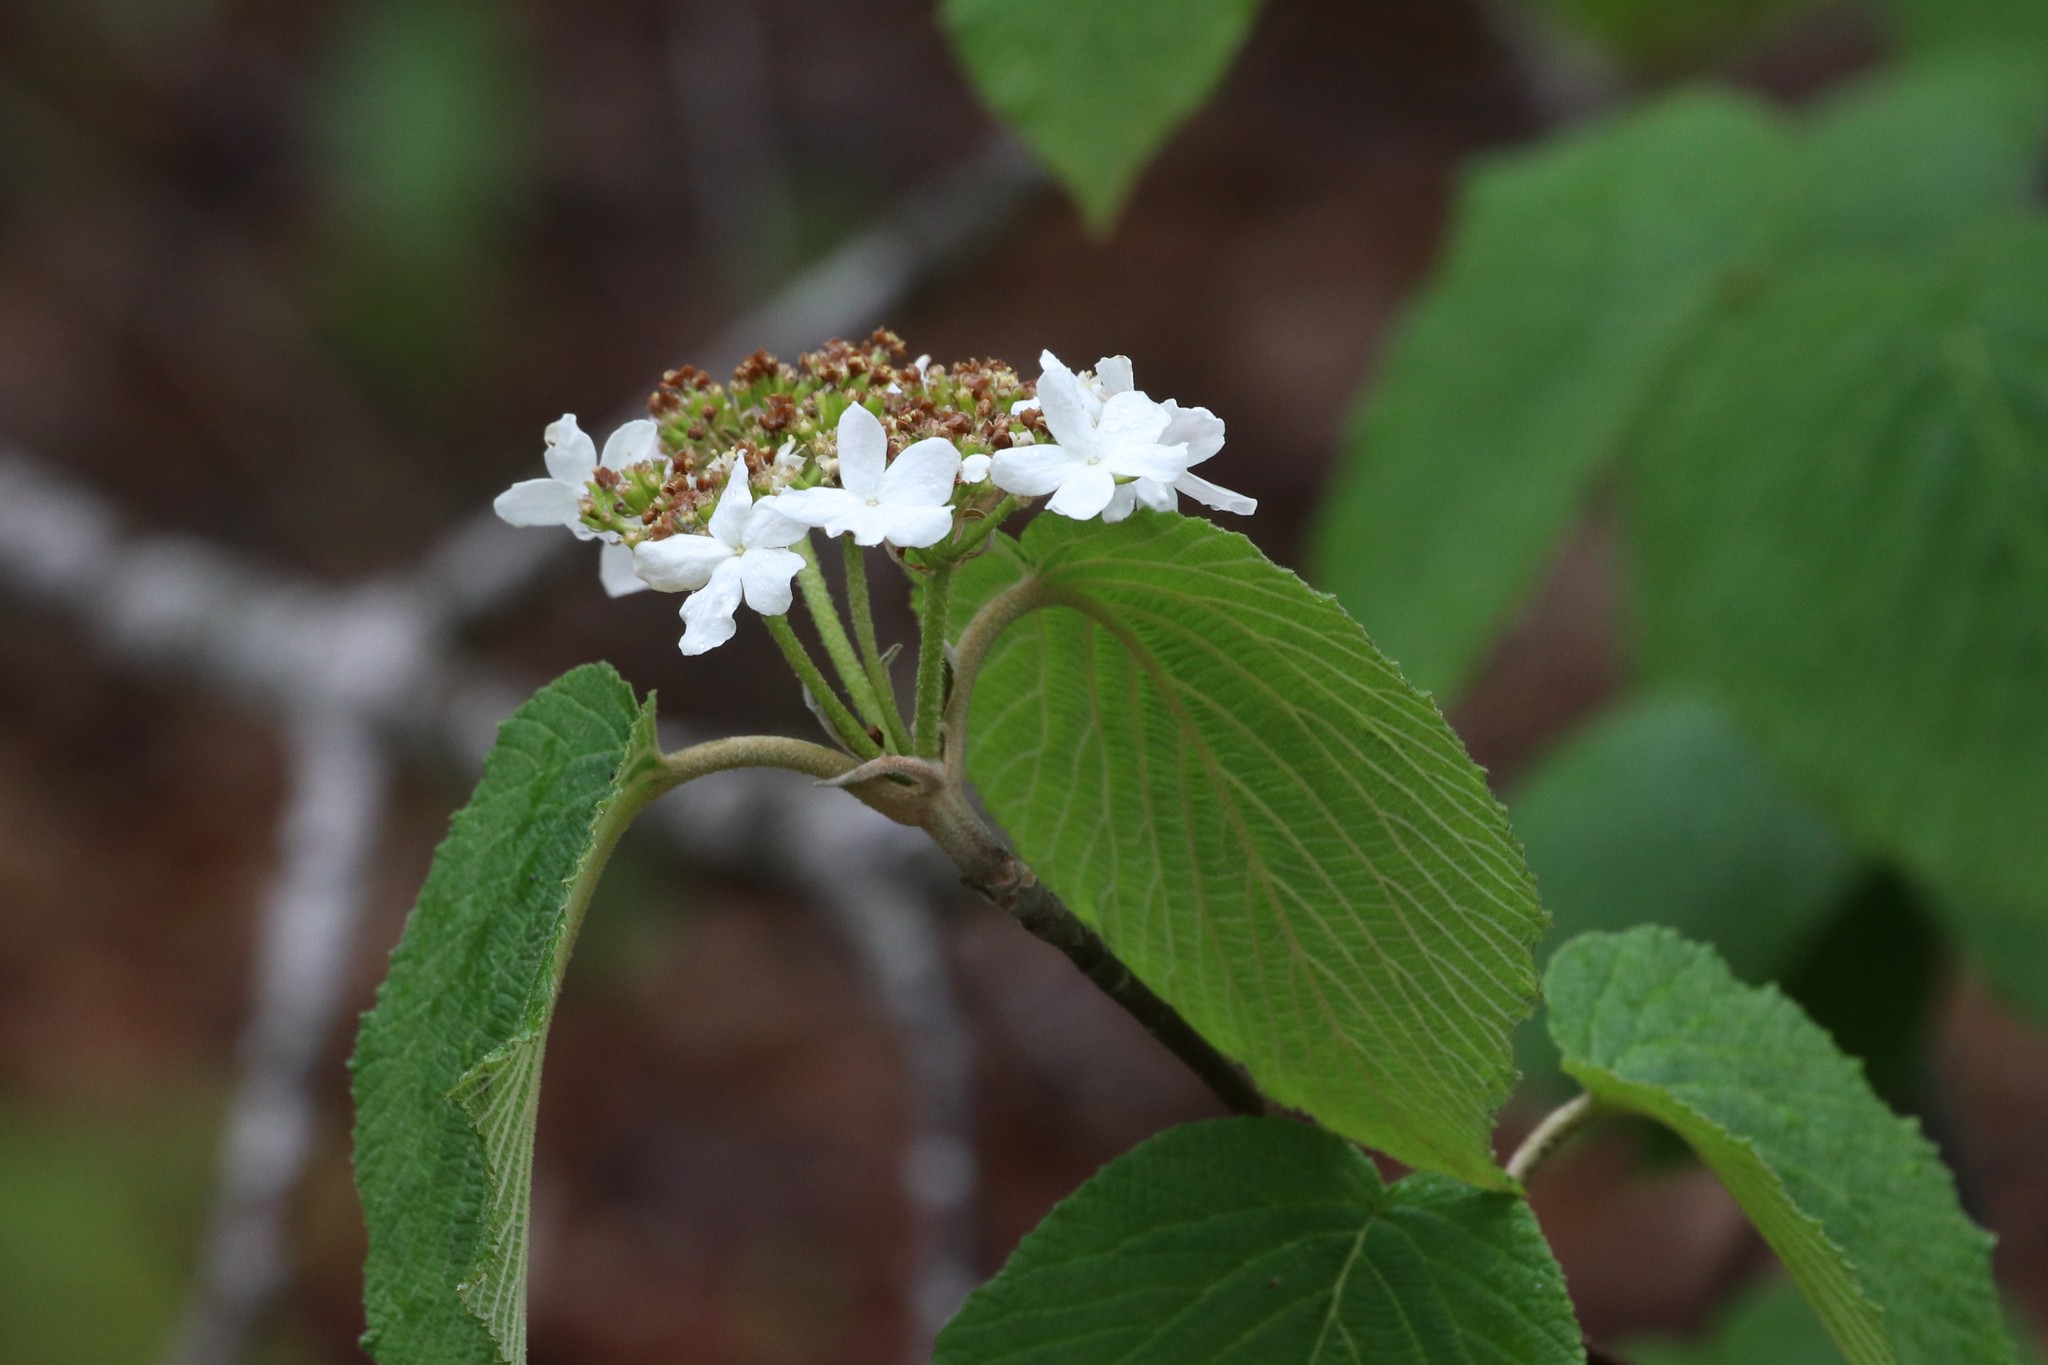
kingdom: Plantae
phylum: Tracheophyta
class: Magnoliopsida
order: Dipsacales
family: Viburnaceae
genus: Viburnum
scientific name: Viburnum lantanoides
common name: Hobblebush
